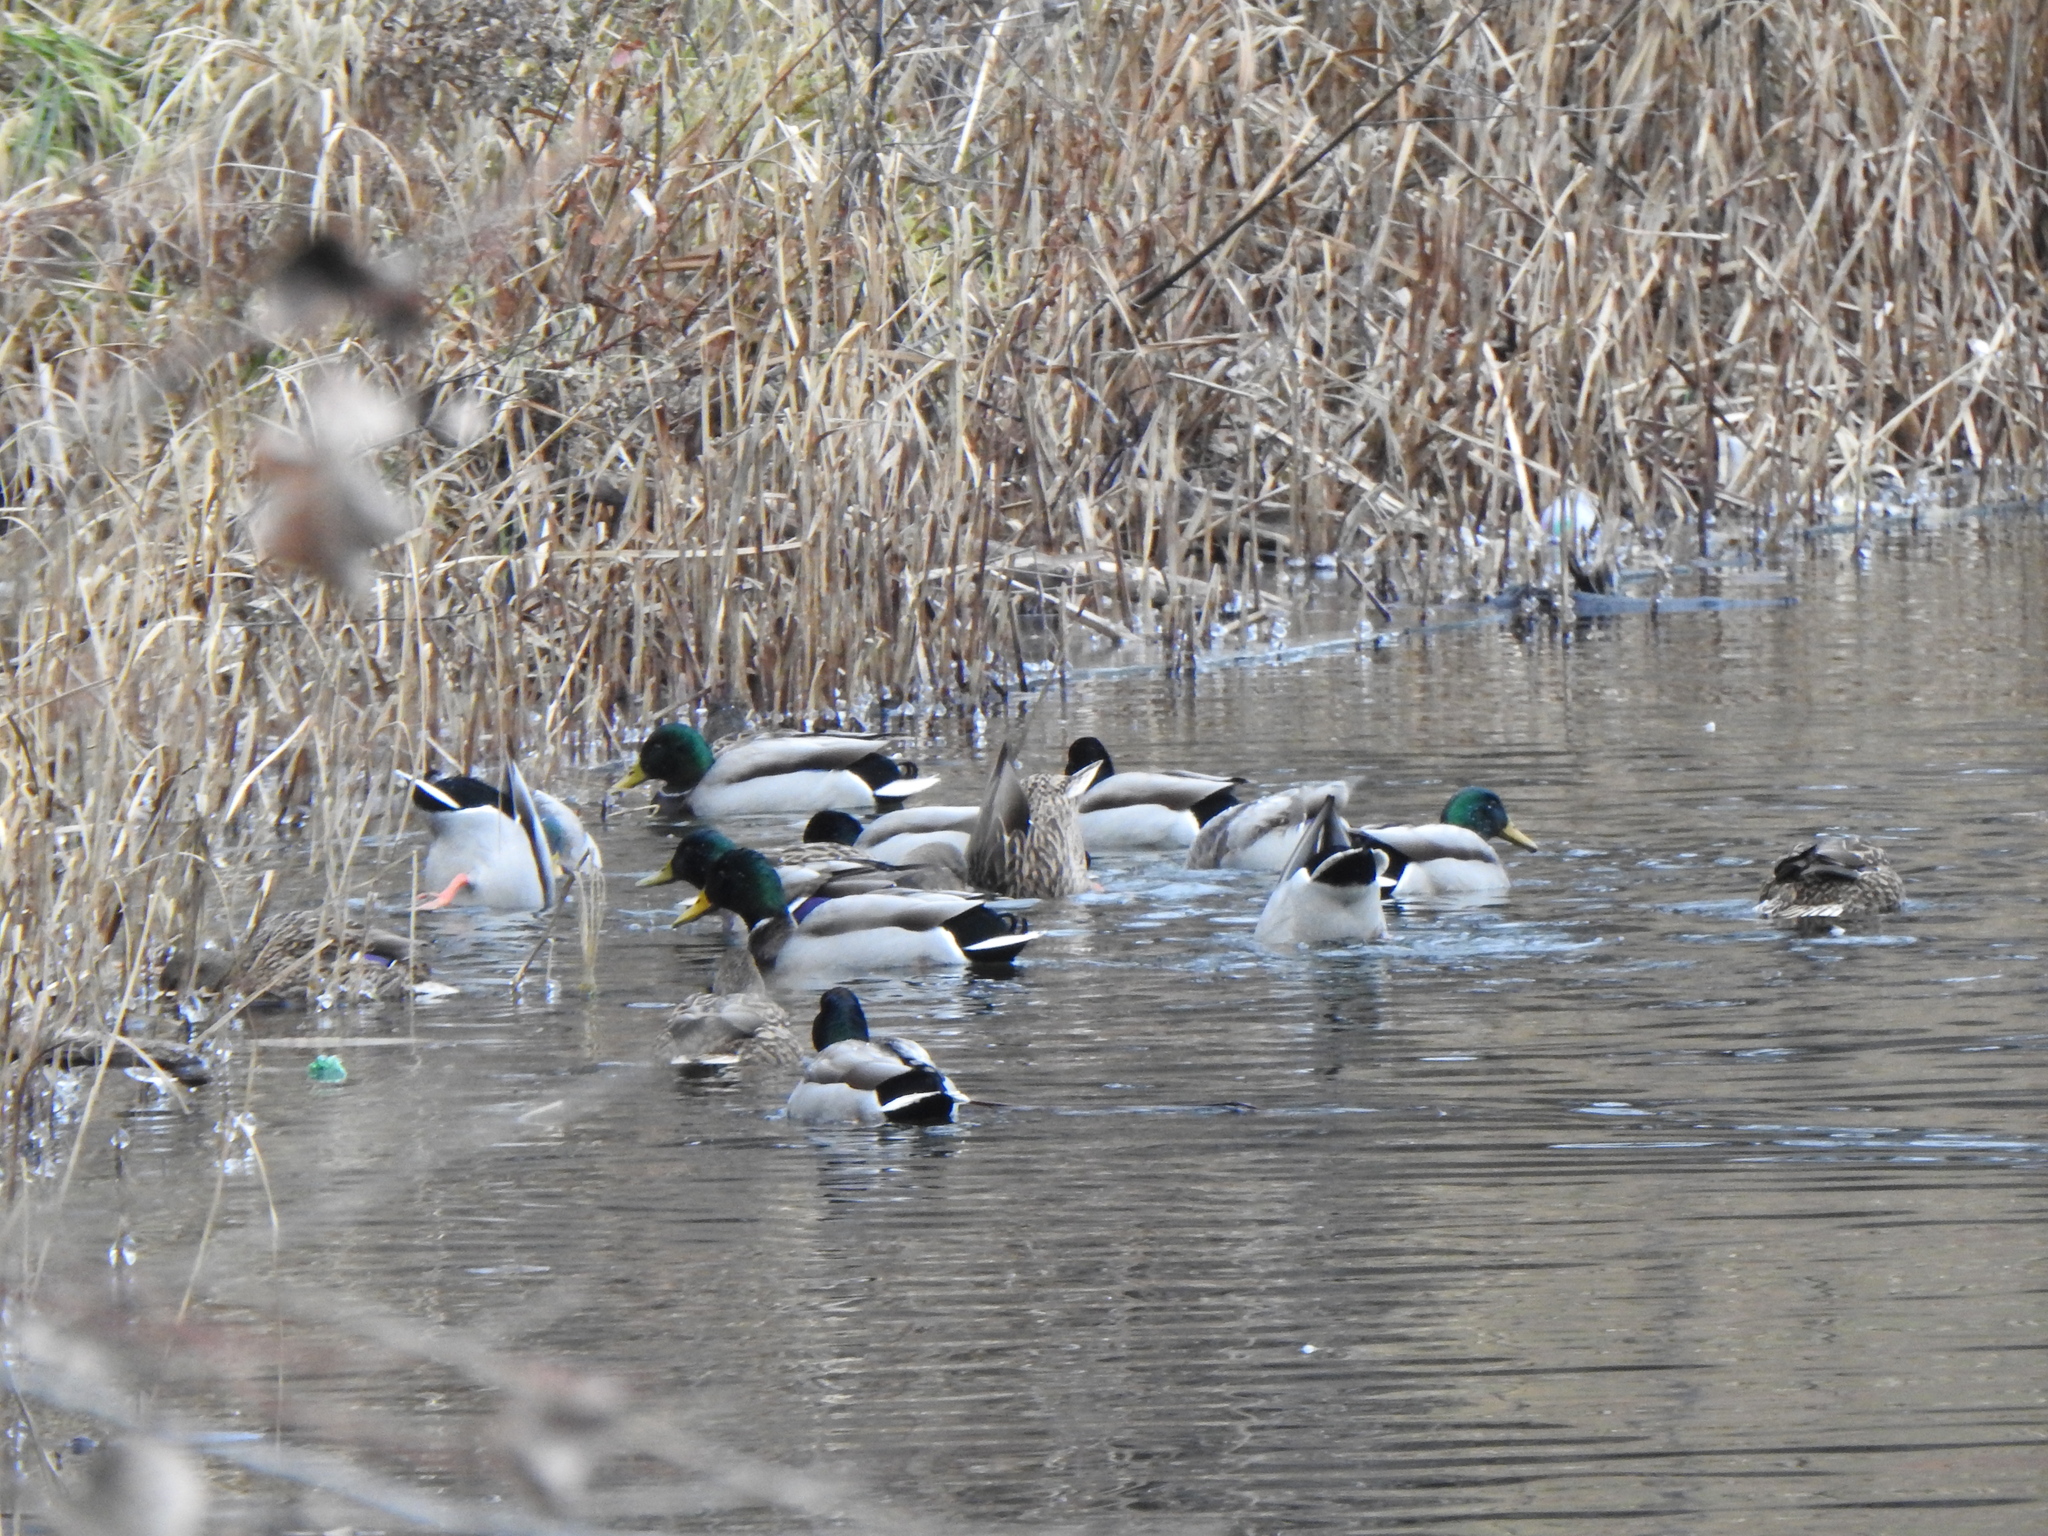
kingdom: Animalia
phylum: Chordata
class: Aves
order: Anseriformes
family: Anatidae
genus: Anas
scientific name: Anas platyrhynchos
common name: Mallard
